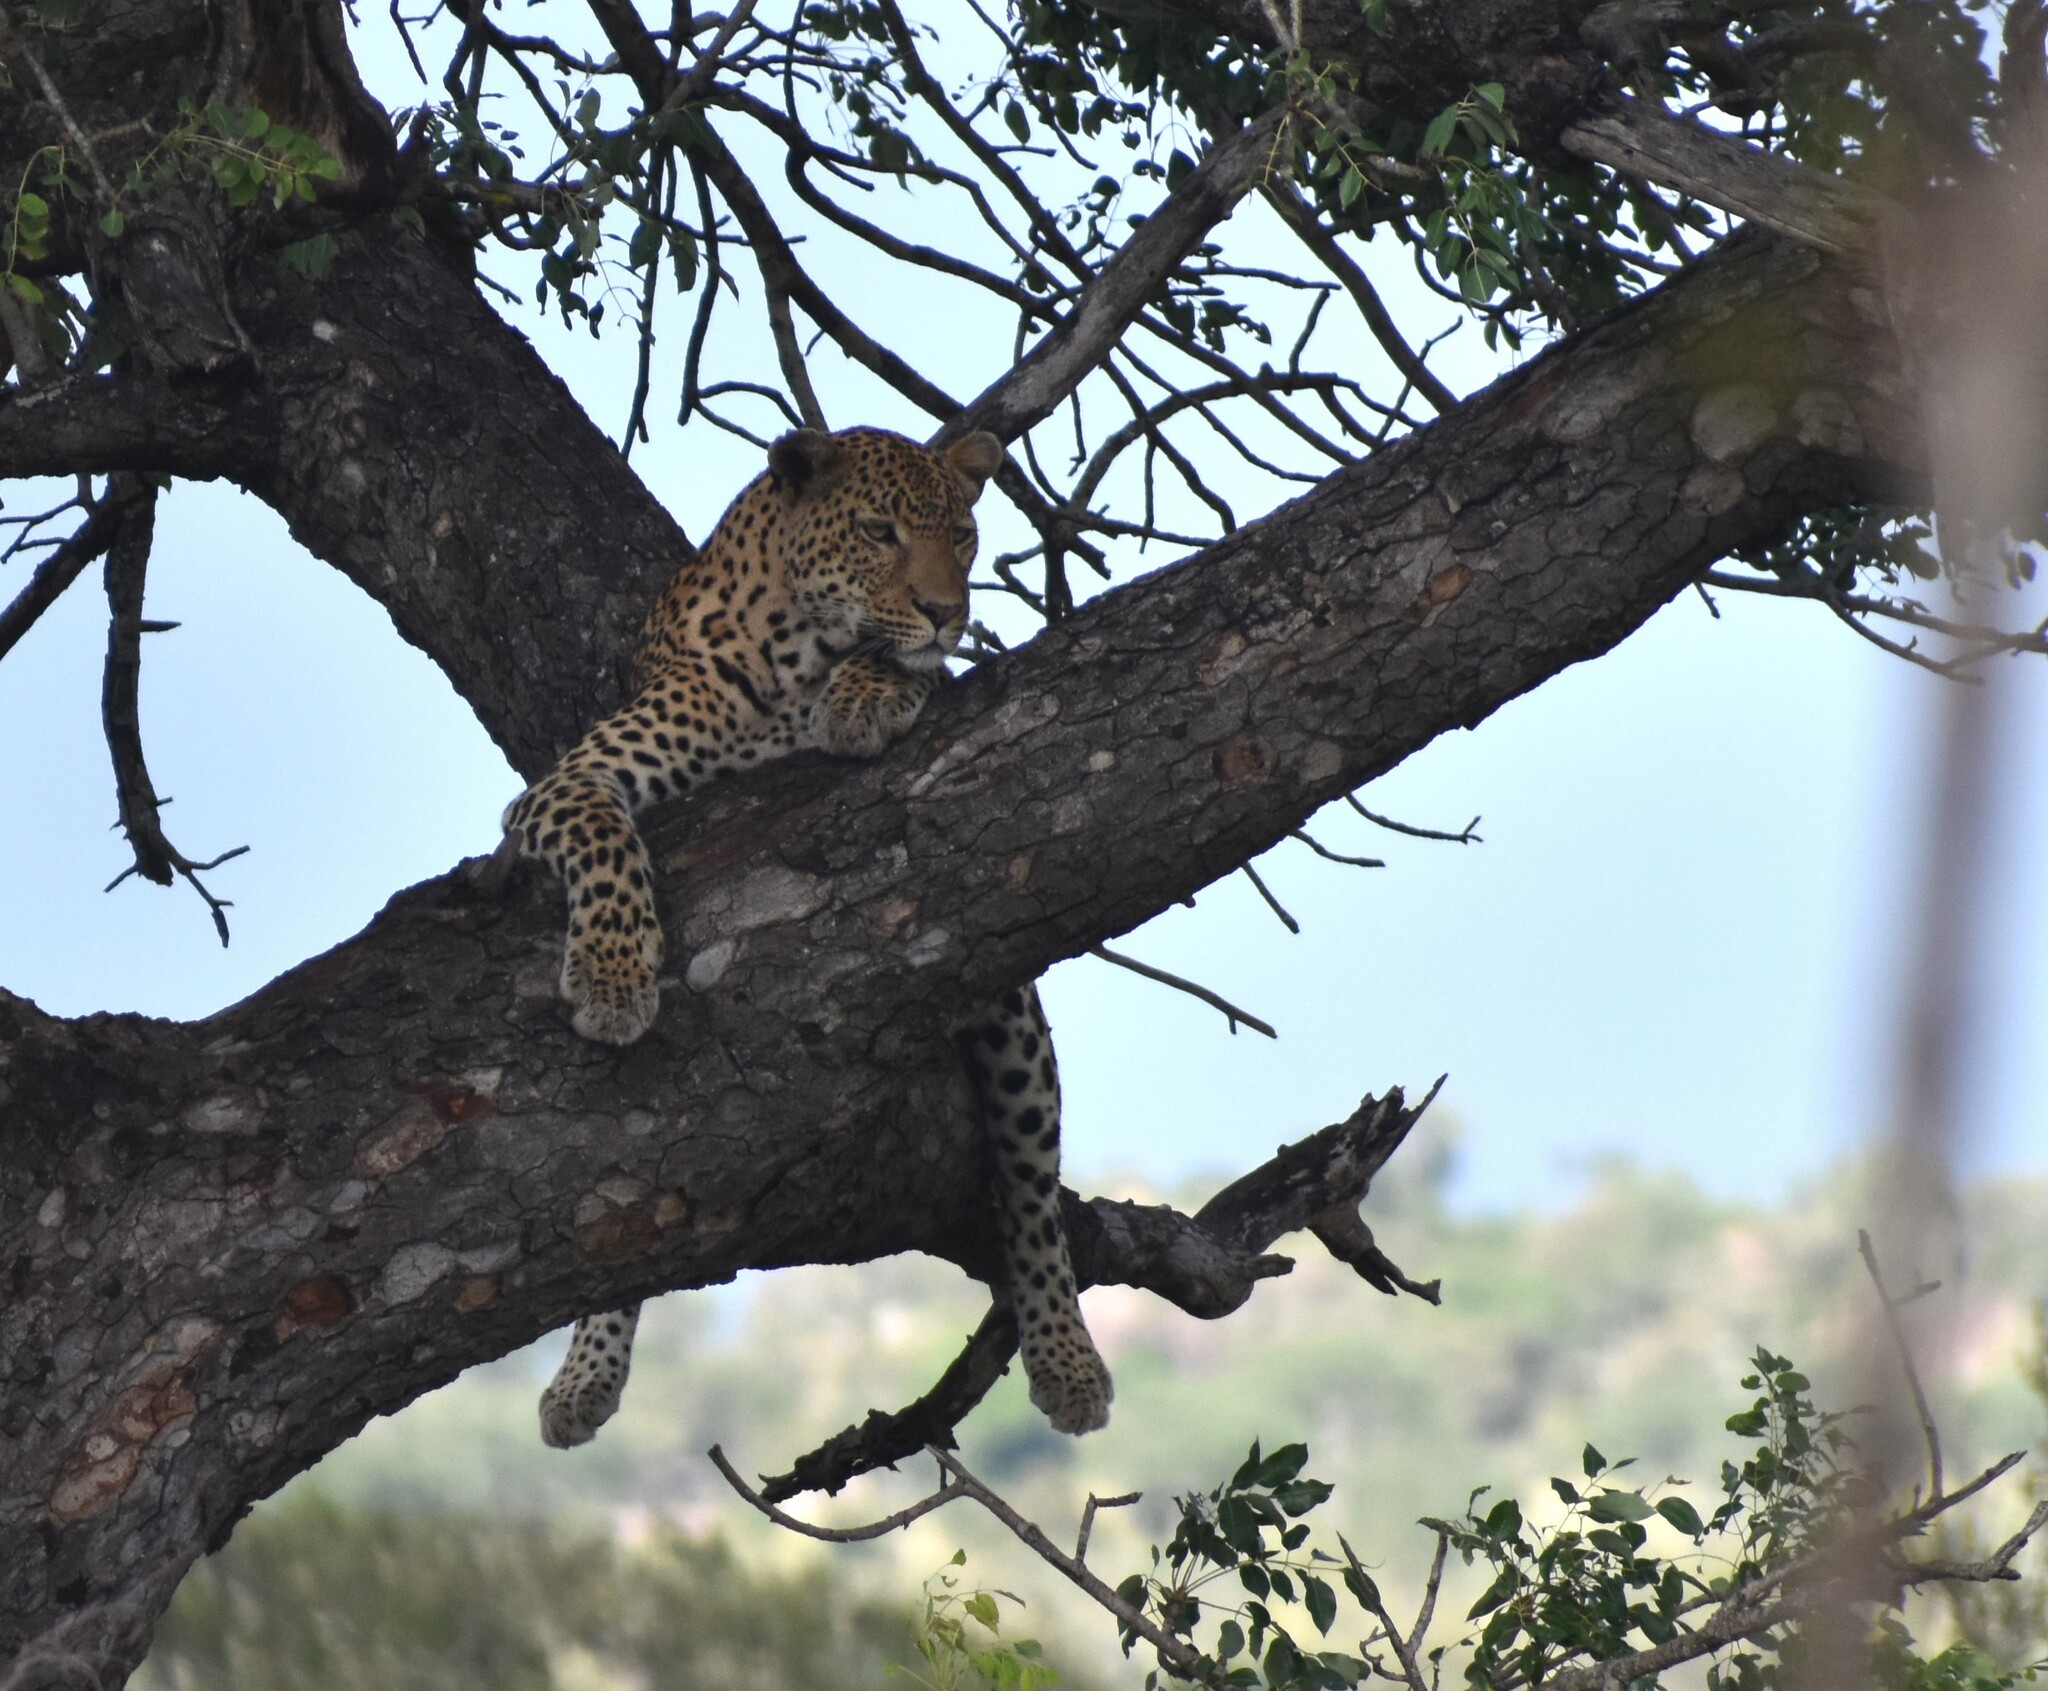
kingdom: Animalia
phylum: Chordata
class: Mammalia
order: Carnivora
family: Felidae
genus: Panthera
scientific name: Panthera pardus
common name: Leopard
